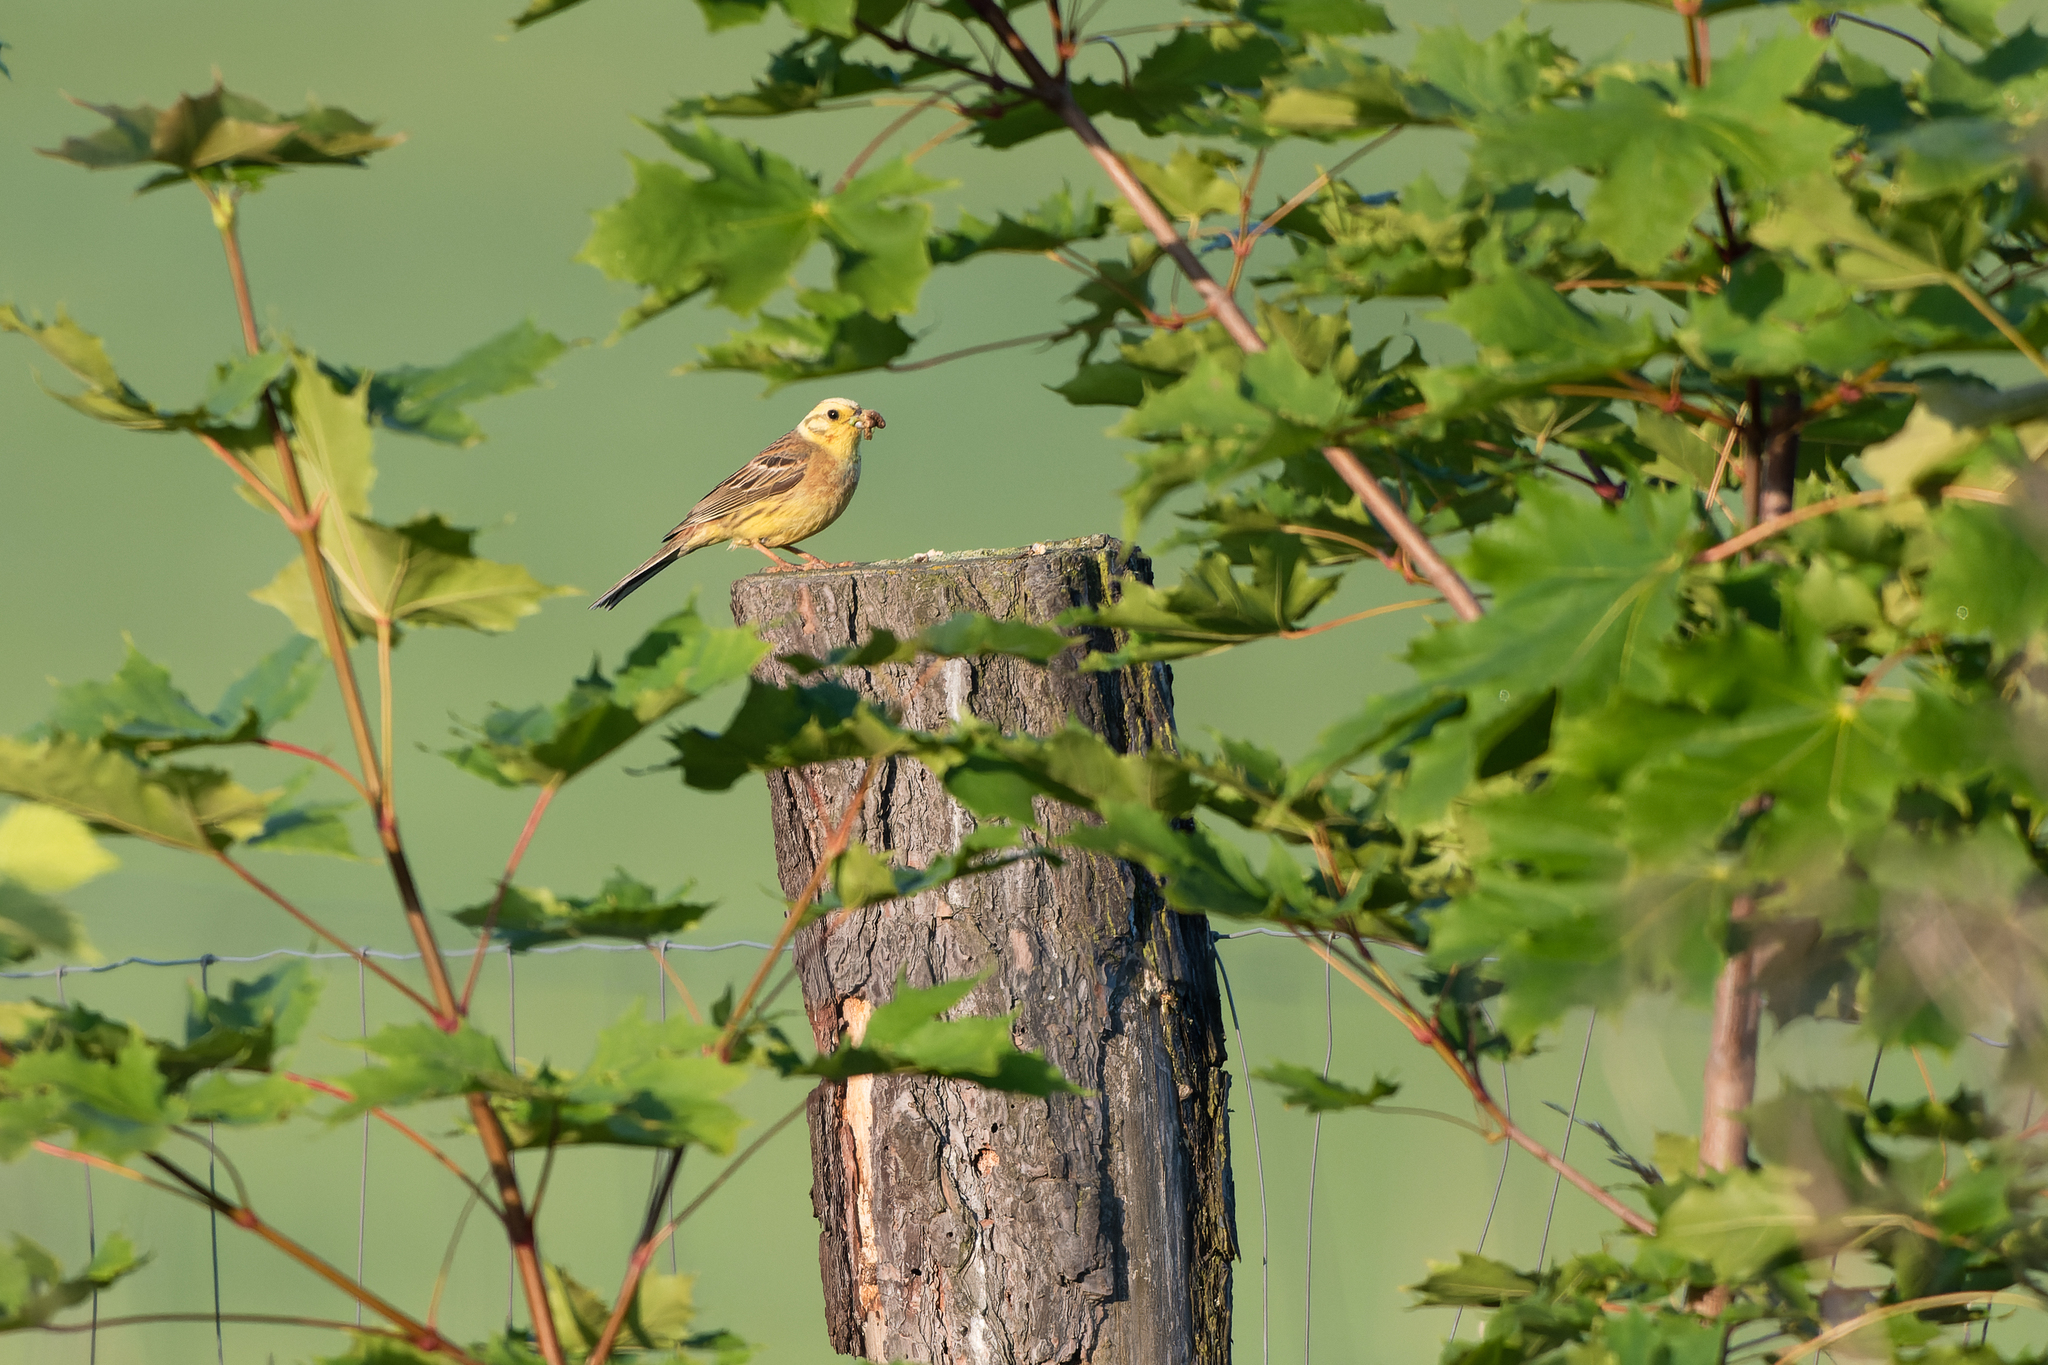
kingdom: Animalia
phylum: Chordata
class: Aves
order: Passeriformes
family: Emberizidae
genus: Emberiza
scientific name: Emberiza citrinella
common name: Yellowhammer
